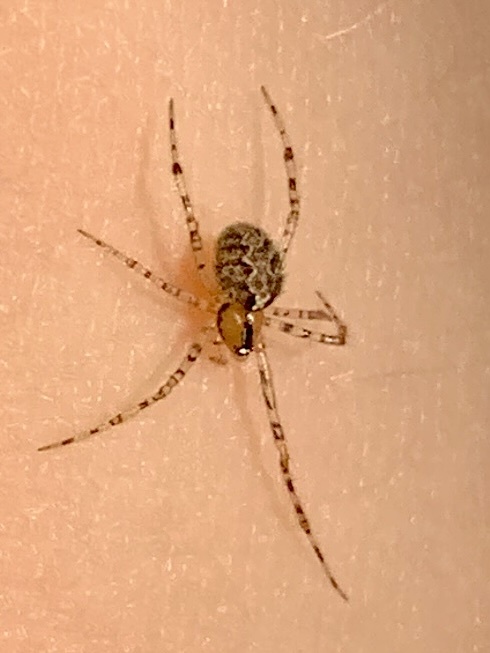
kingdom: Animalia
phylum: Arthropoda
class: Arachnida
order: Araneae
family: Theridiidae
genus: Theridion
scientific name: Theridion murarium
